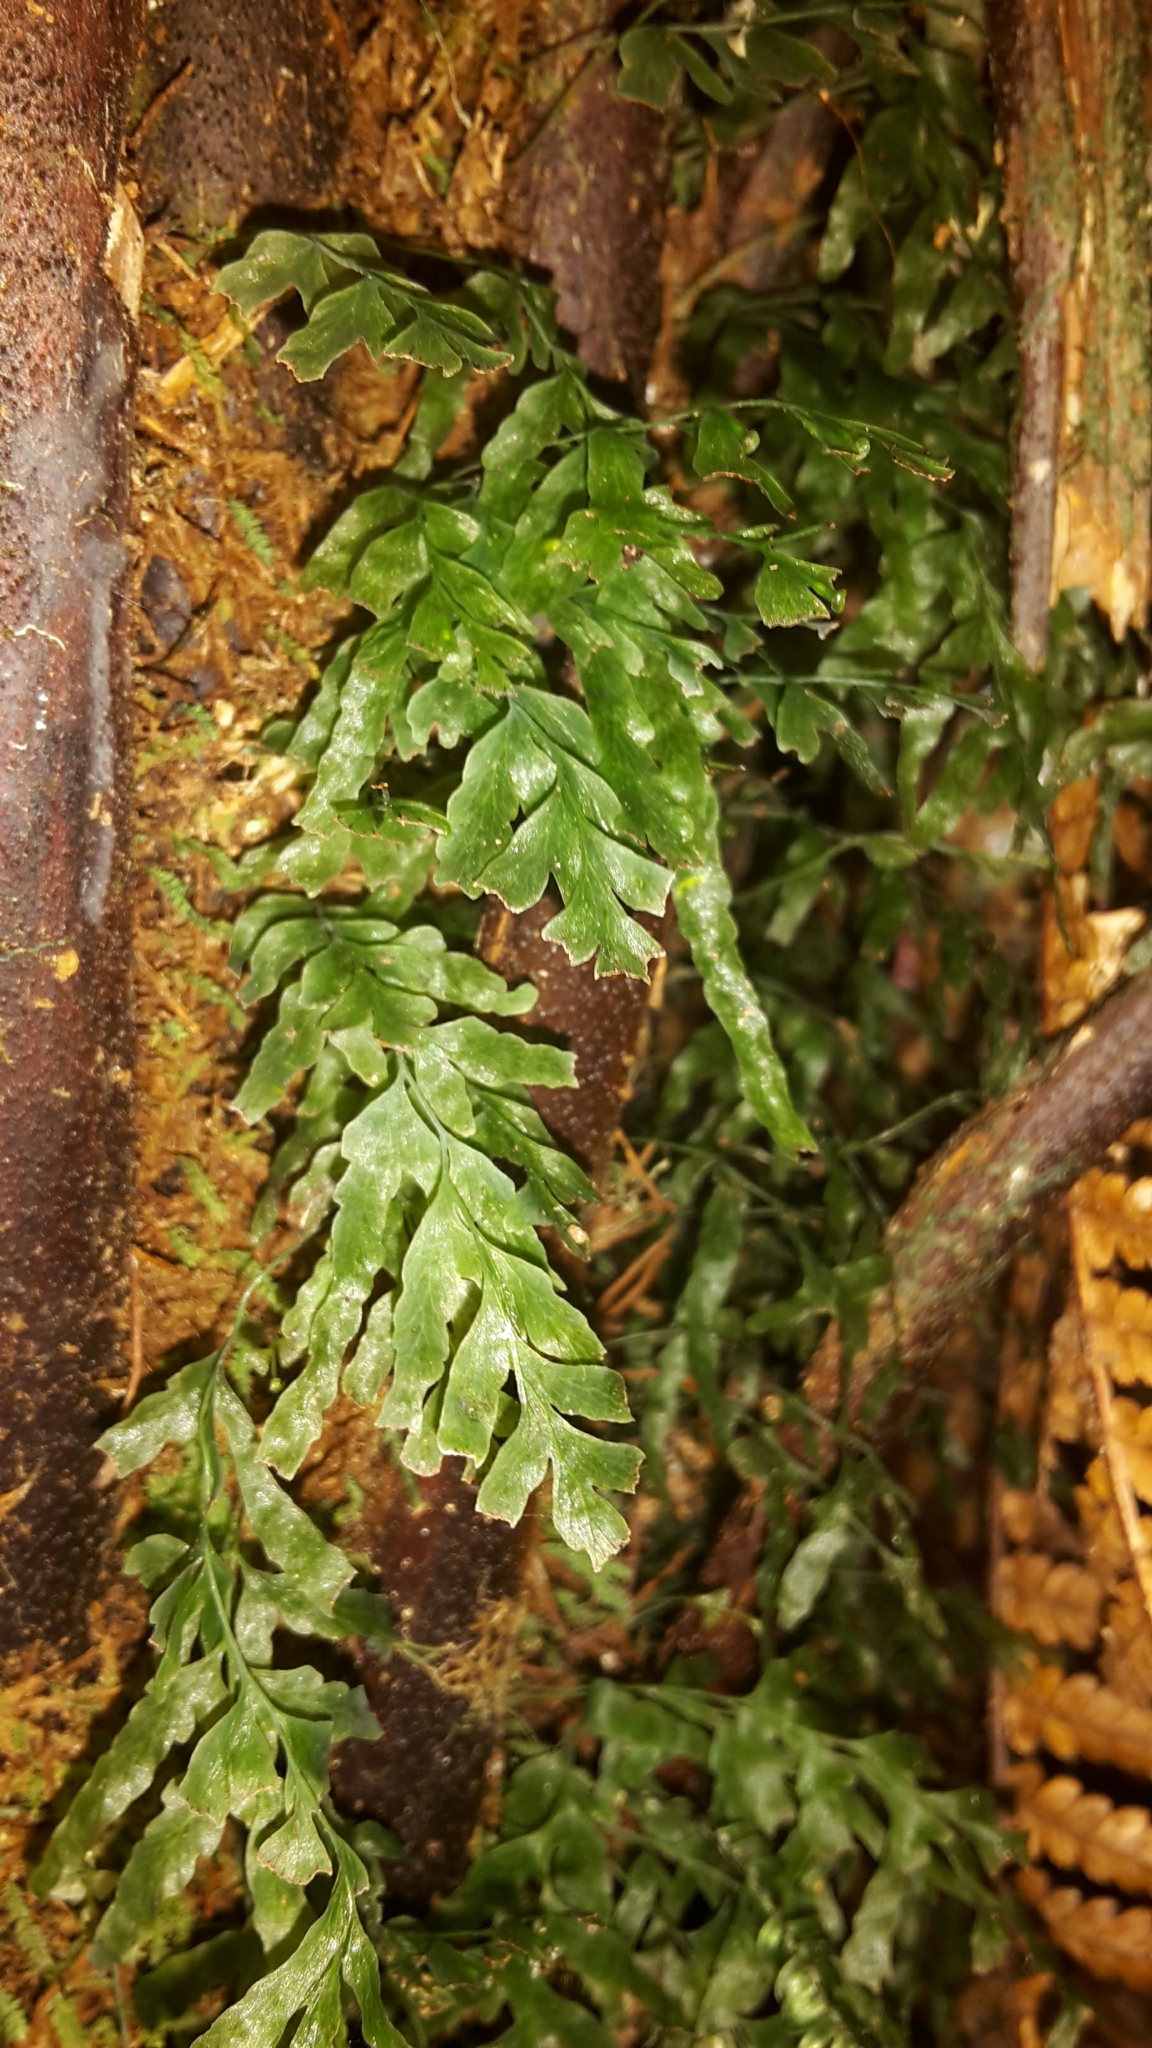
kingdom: Plantae
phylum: Tracheophyta
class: Polypodiopsida
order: Hymenophyllales
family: Hymenophyllaceae
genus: Polyphlebium
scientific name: Polyphlebium venosum
